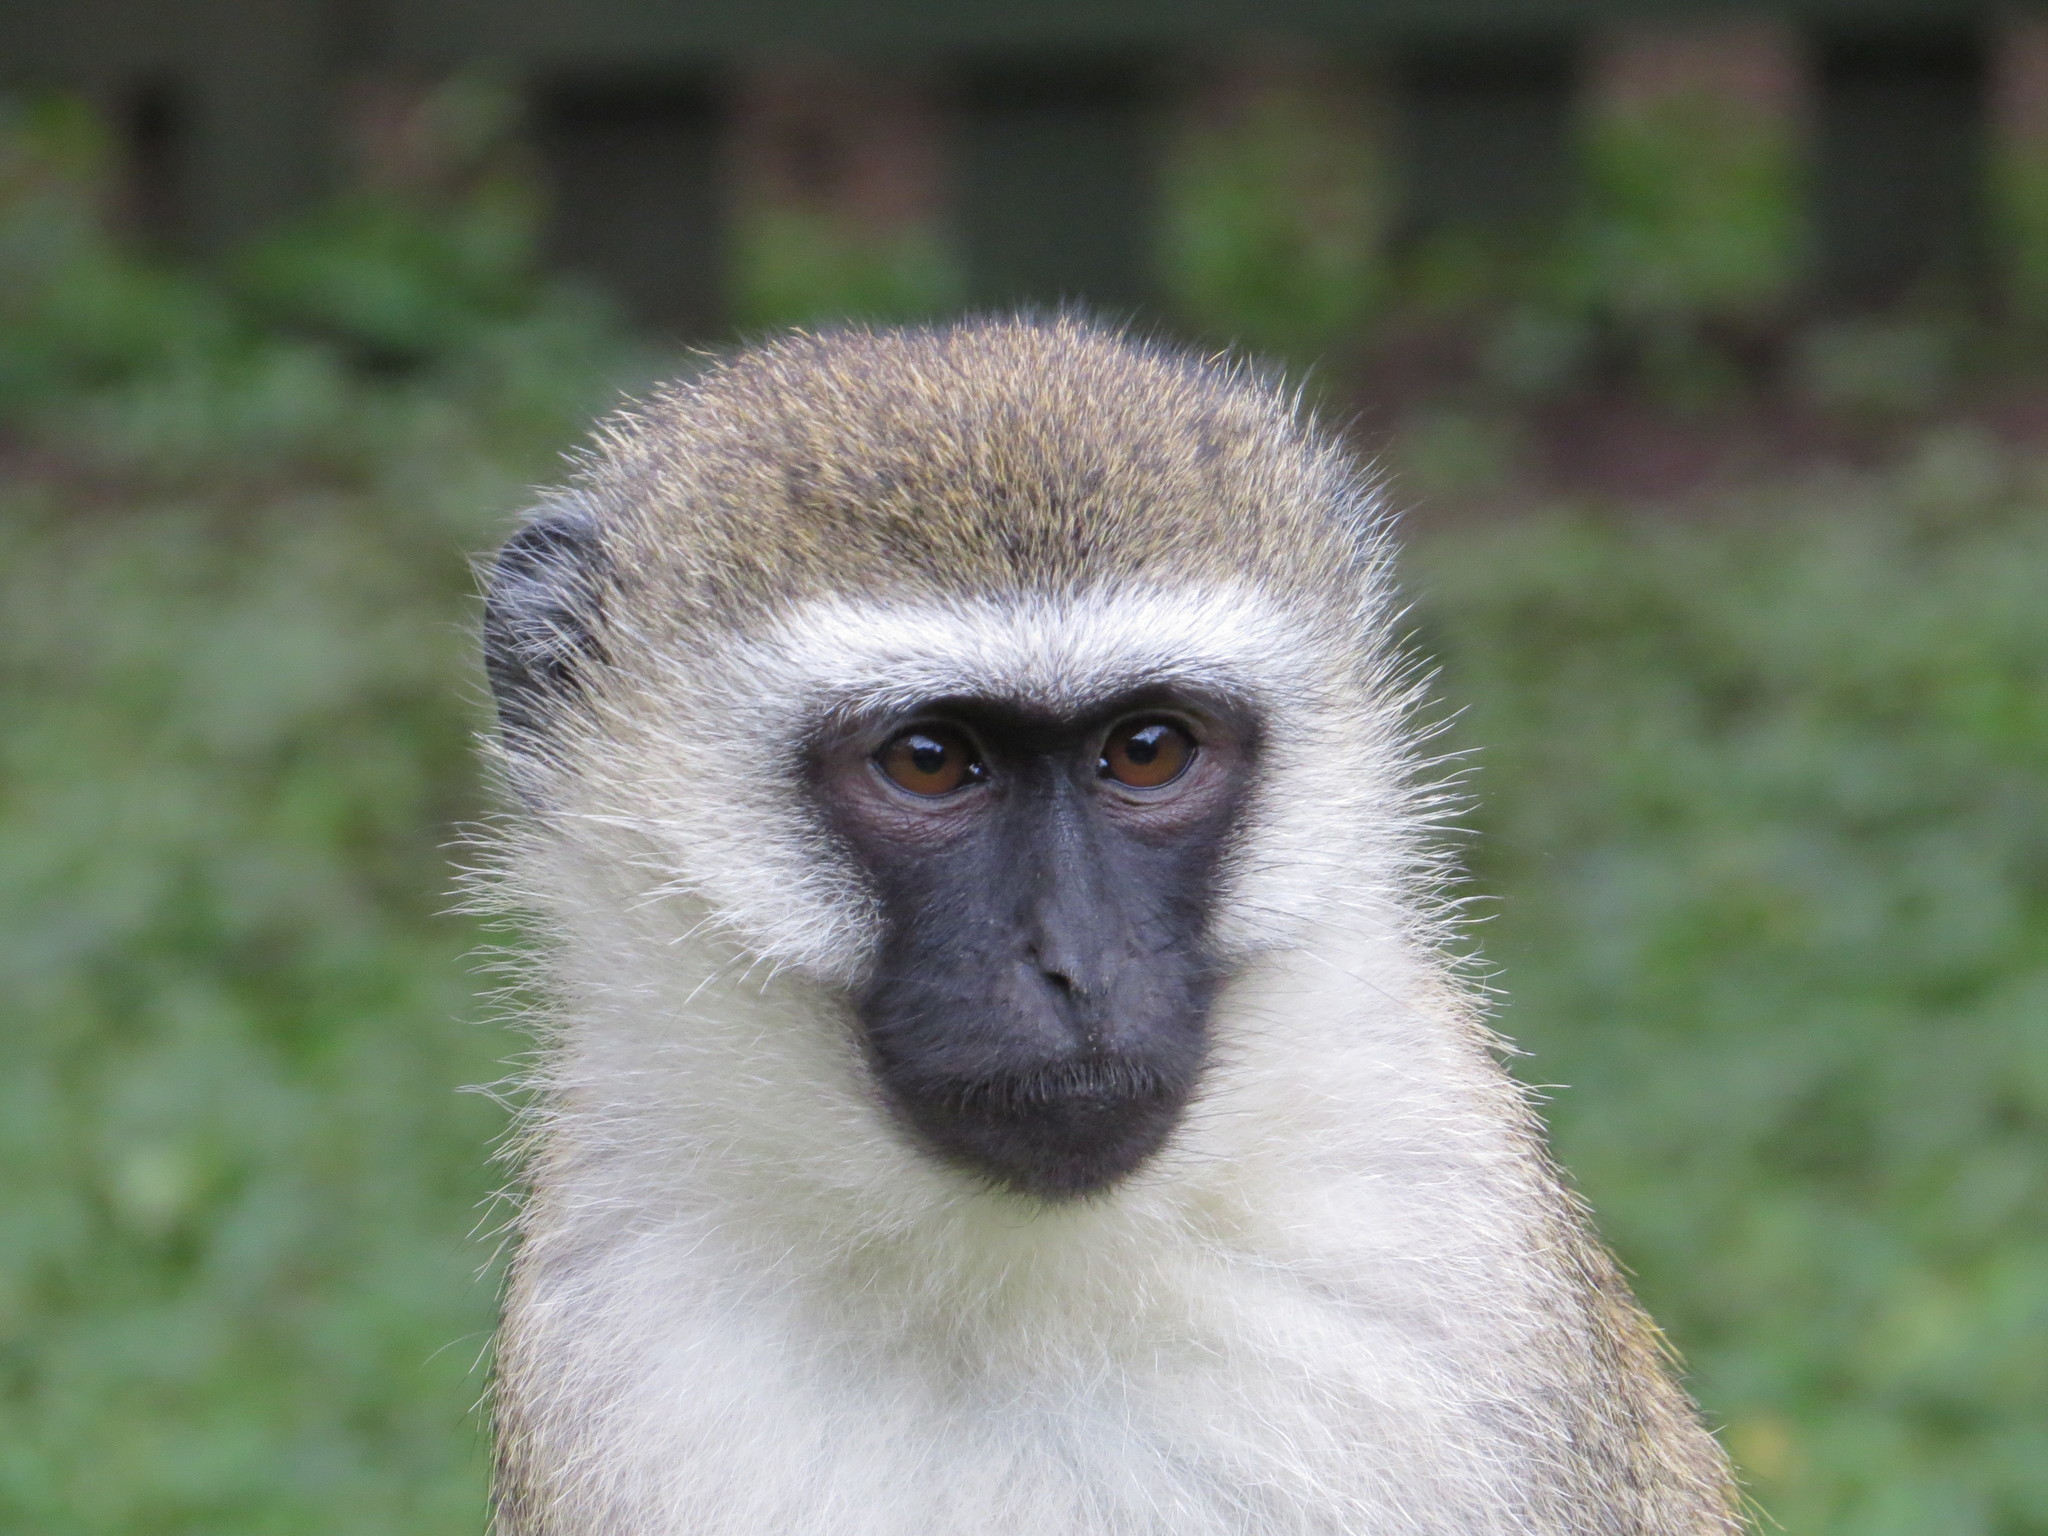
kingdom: Animalia
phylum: Chordata
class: Mammalia
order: Primates
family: Cercopithecidae
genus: Chlorocebus
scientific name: Chlorocebus pygerythrus
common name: Vervet monkey
